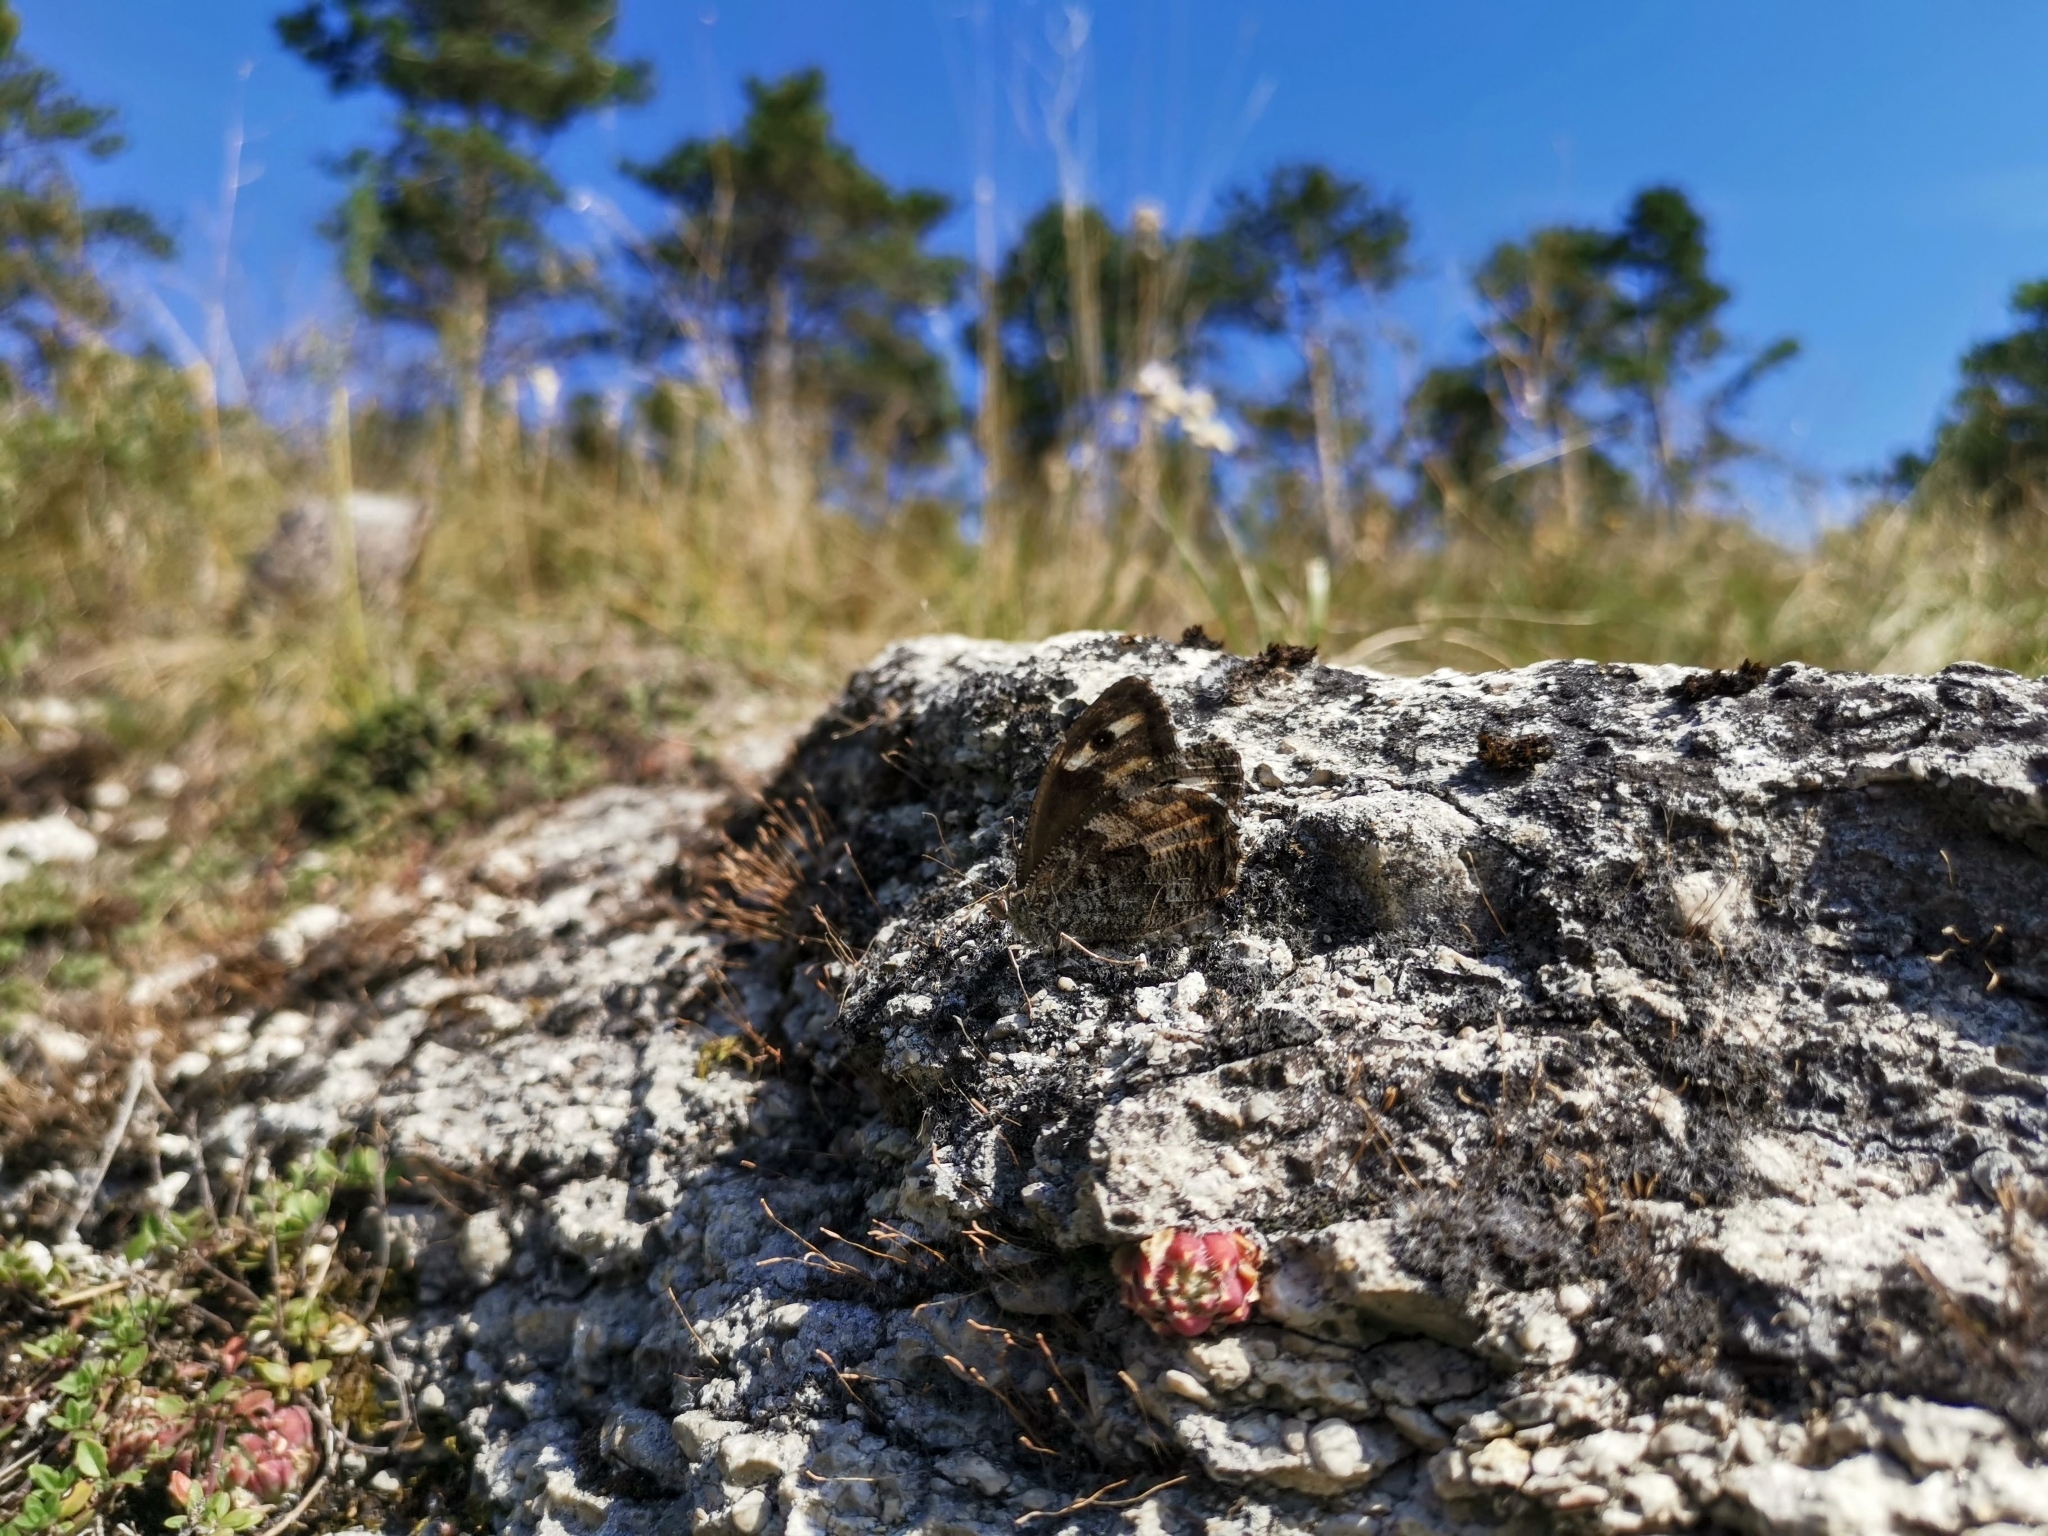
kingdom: Animalia
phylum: Arthropoda
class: Insecta
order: Lepidoptera
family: Nymphalidae
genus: Hipparchia
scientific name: Hipparchia semele
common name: Grayling
